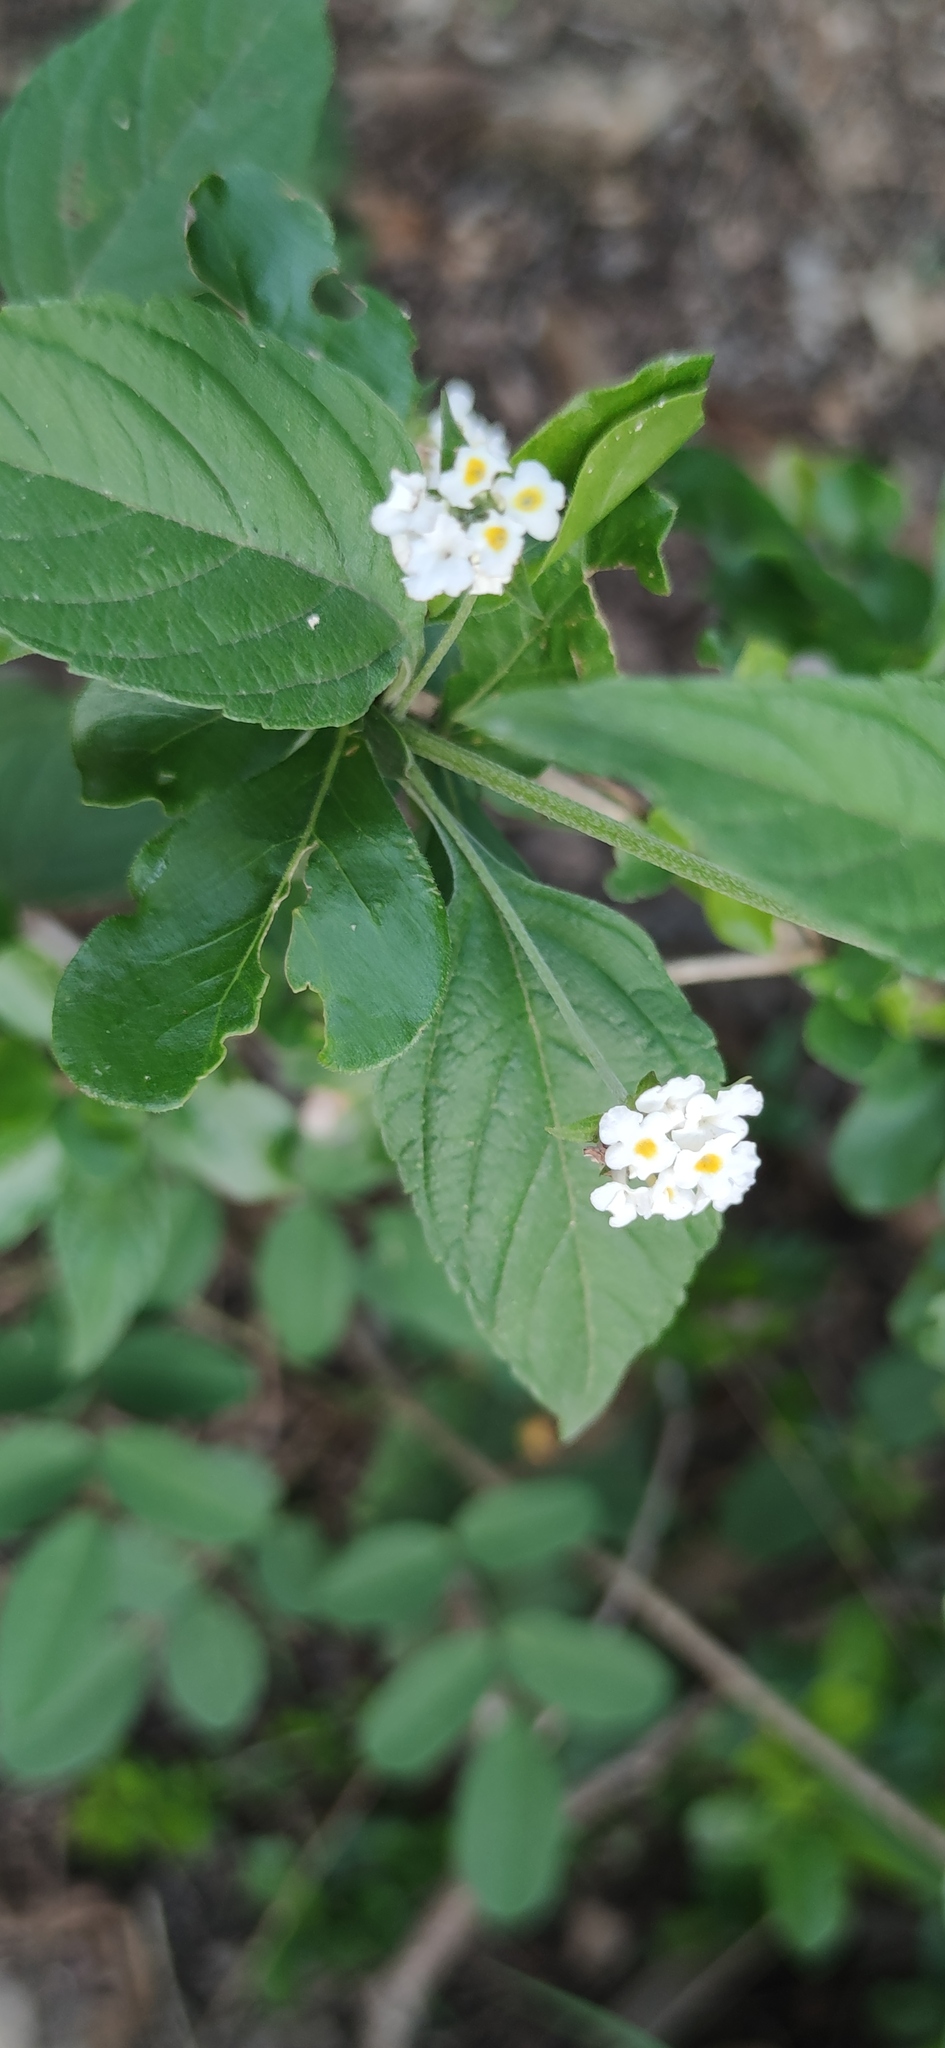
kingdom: Plantae
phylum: Tracheophyta
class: Magnoliopsida
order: Lamiales
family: Verbenaceae
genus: Lantana
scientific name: Lantana canescens
